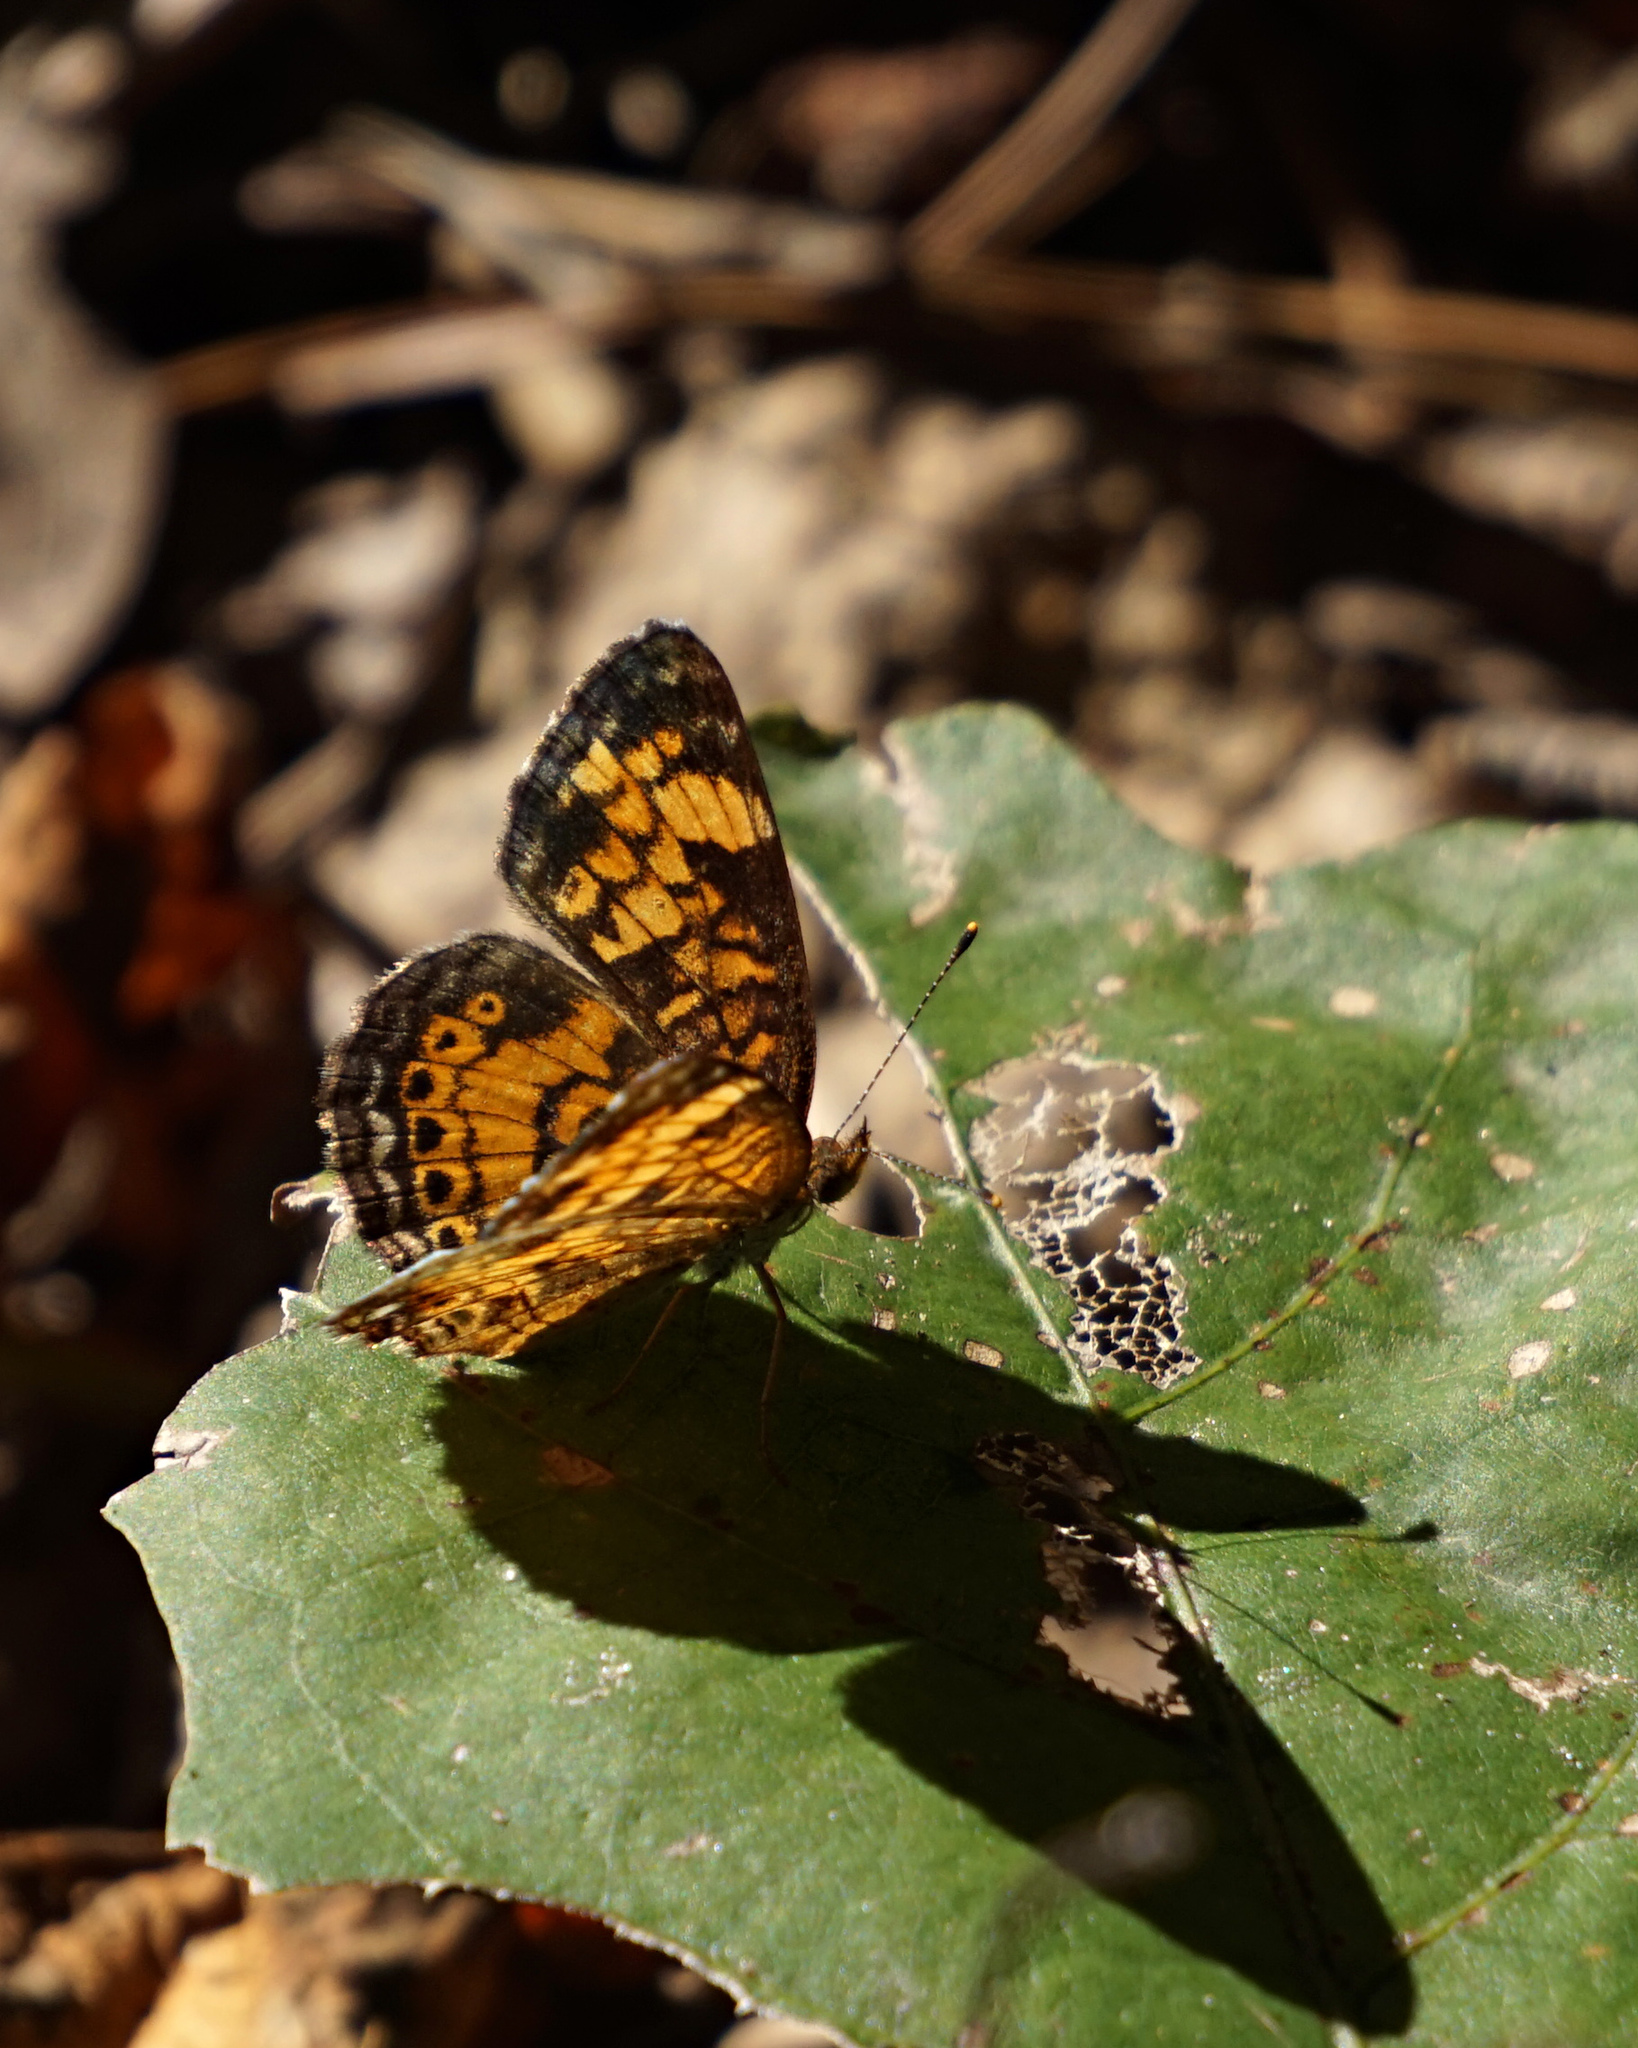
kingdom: Animalia
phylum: Arthropoda
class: Insecta
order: Lepidoptera
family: Nymphalidae
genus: Phyciodes
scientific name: Phyciodes tharos
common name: Pearl crescent
